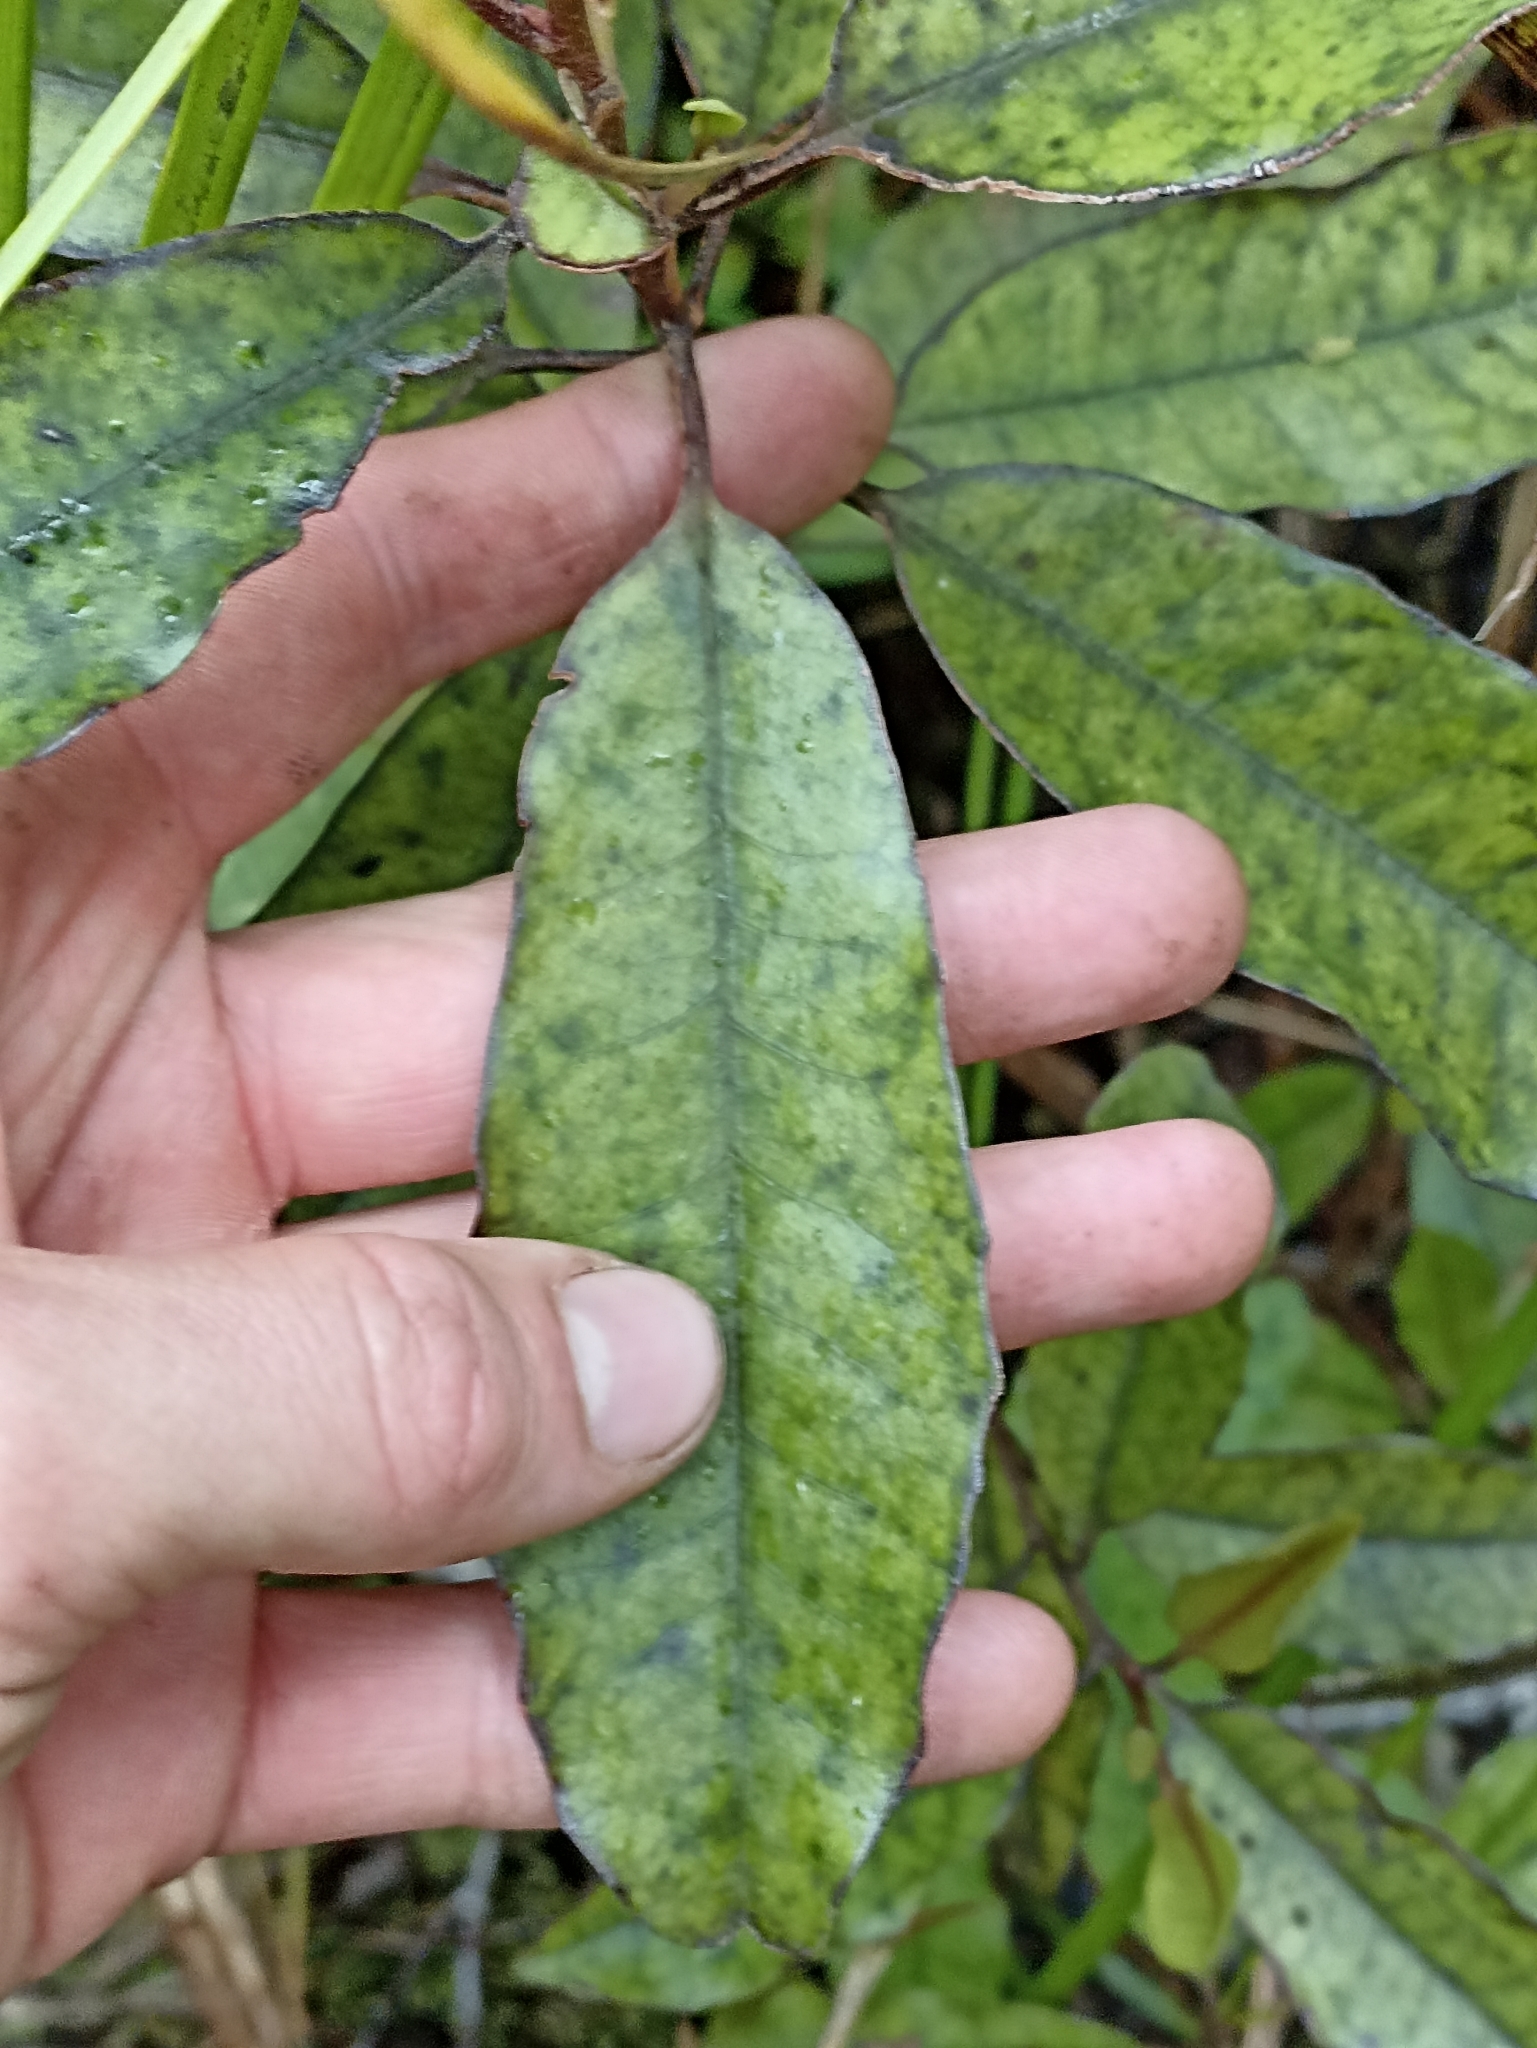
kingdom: Plantae
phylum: Tracheophyta
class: Magnoliopsida
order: Paracryphiales
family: Paracryphiaceae
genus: Quintinia
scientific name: Quintinia serrata
